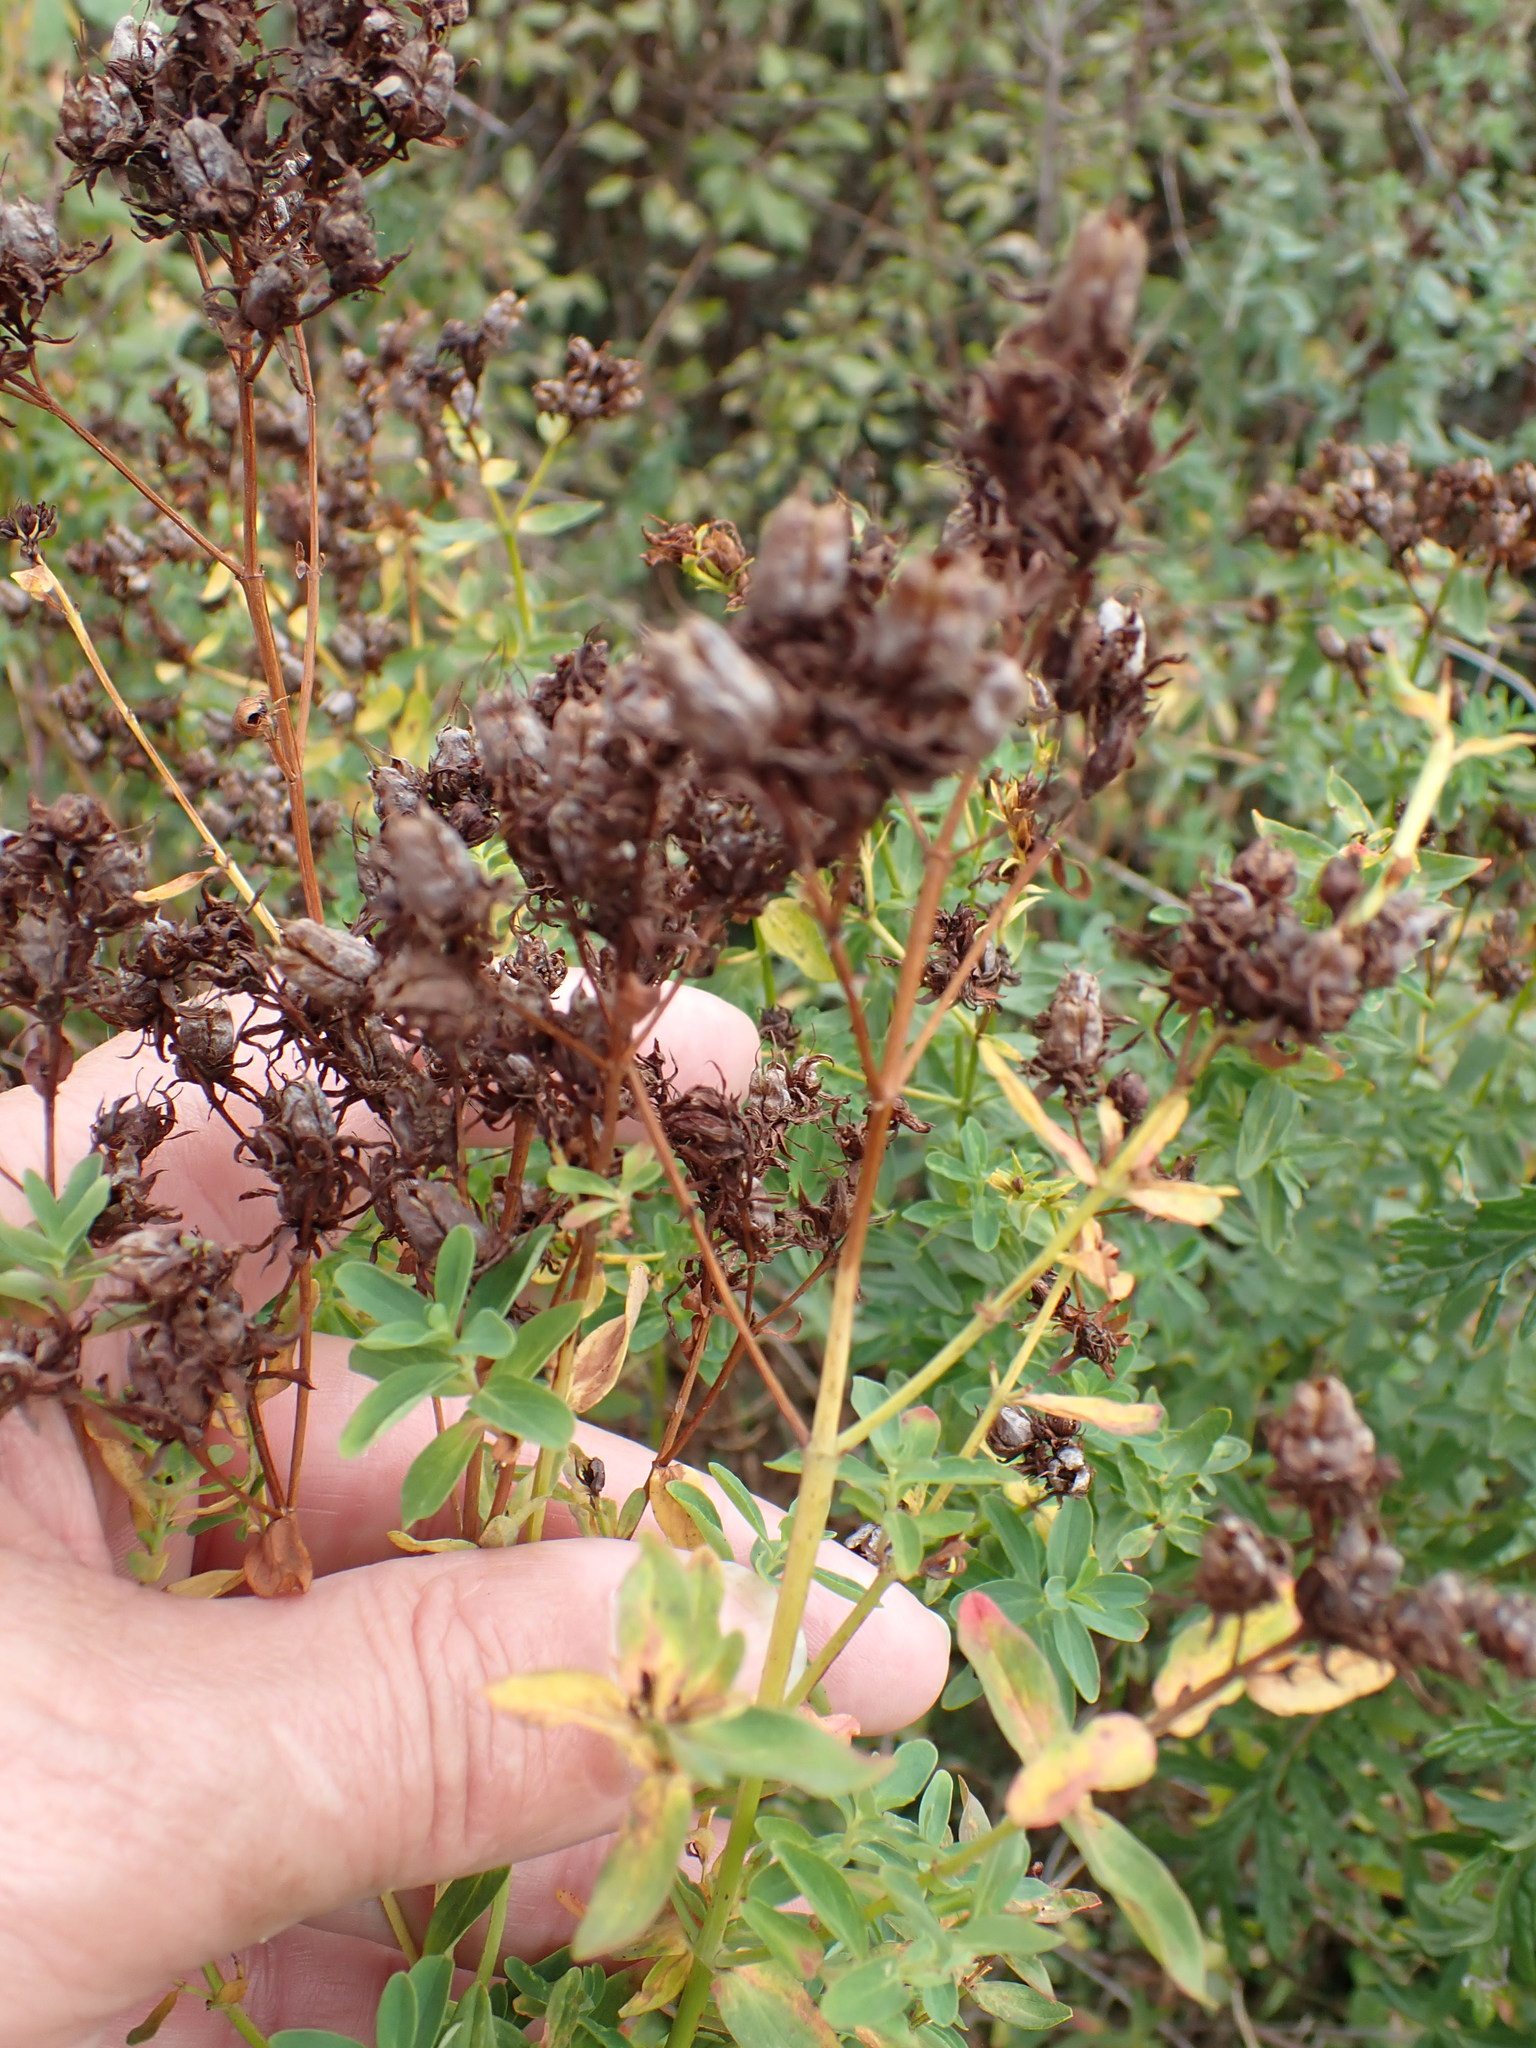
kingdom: Plantae
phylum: Tracheophyta
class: Magnoliopsida
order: Malpighiales
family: Hypericaceae
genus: Hypericum
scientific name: Hypericum perforatum
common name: Common st. johnswort
